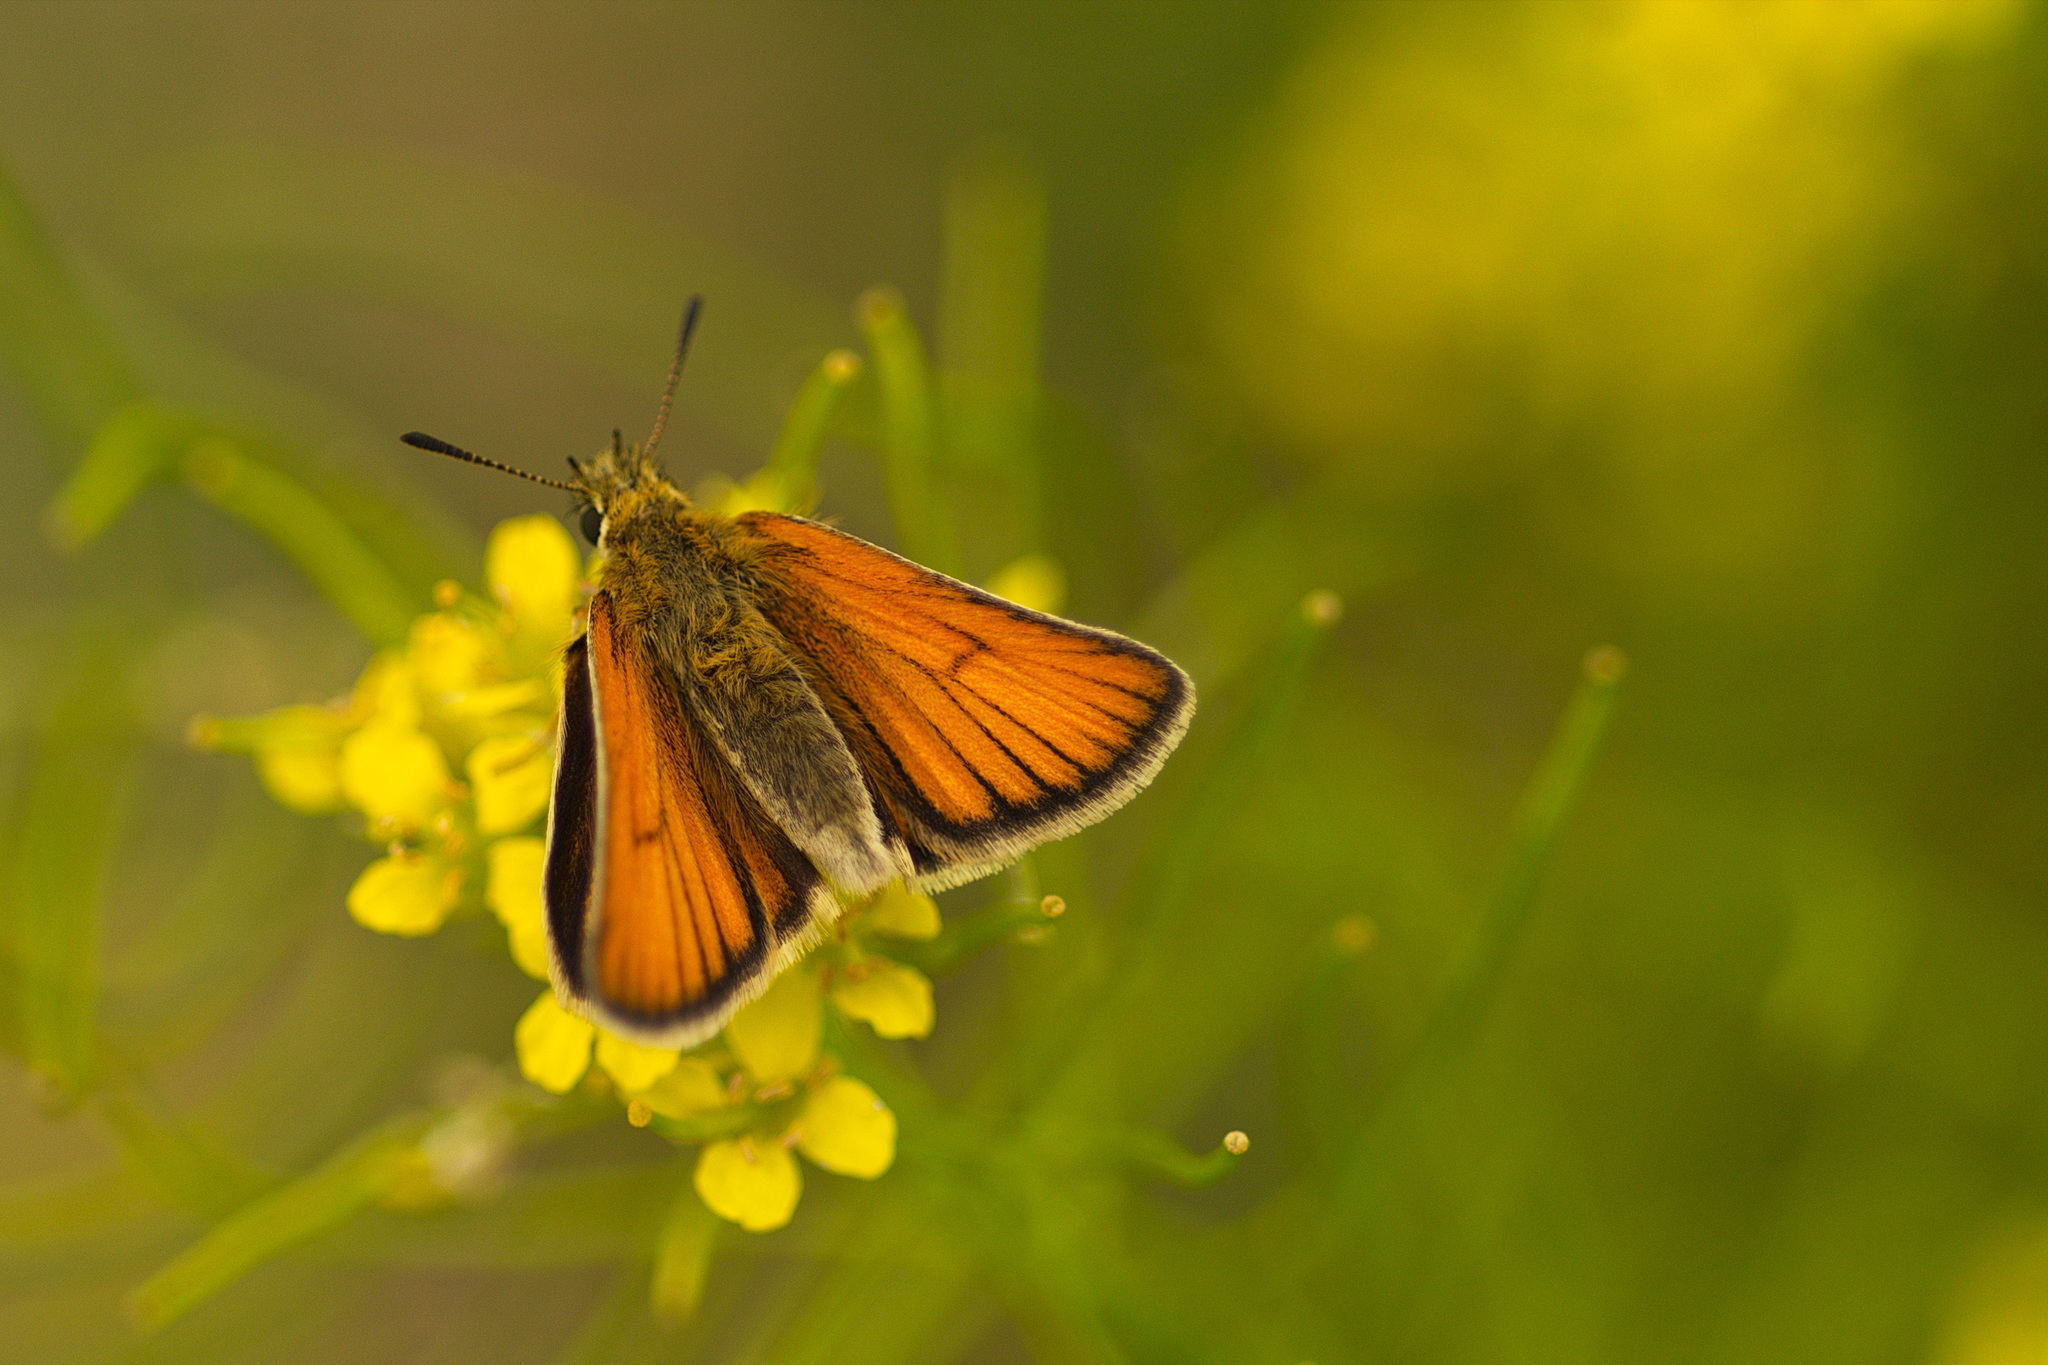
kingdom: Animalia
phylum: Arthropoda
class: Insecta
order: Lepidoptera
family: Hesperiidae
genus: Thymelicus
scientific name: Thymelicus lineola
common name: Essex skipper
